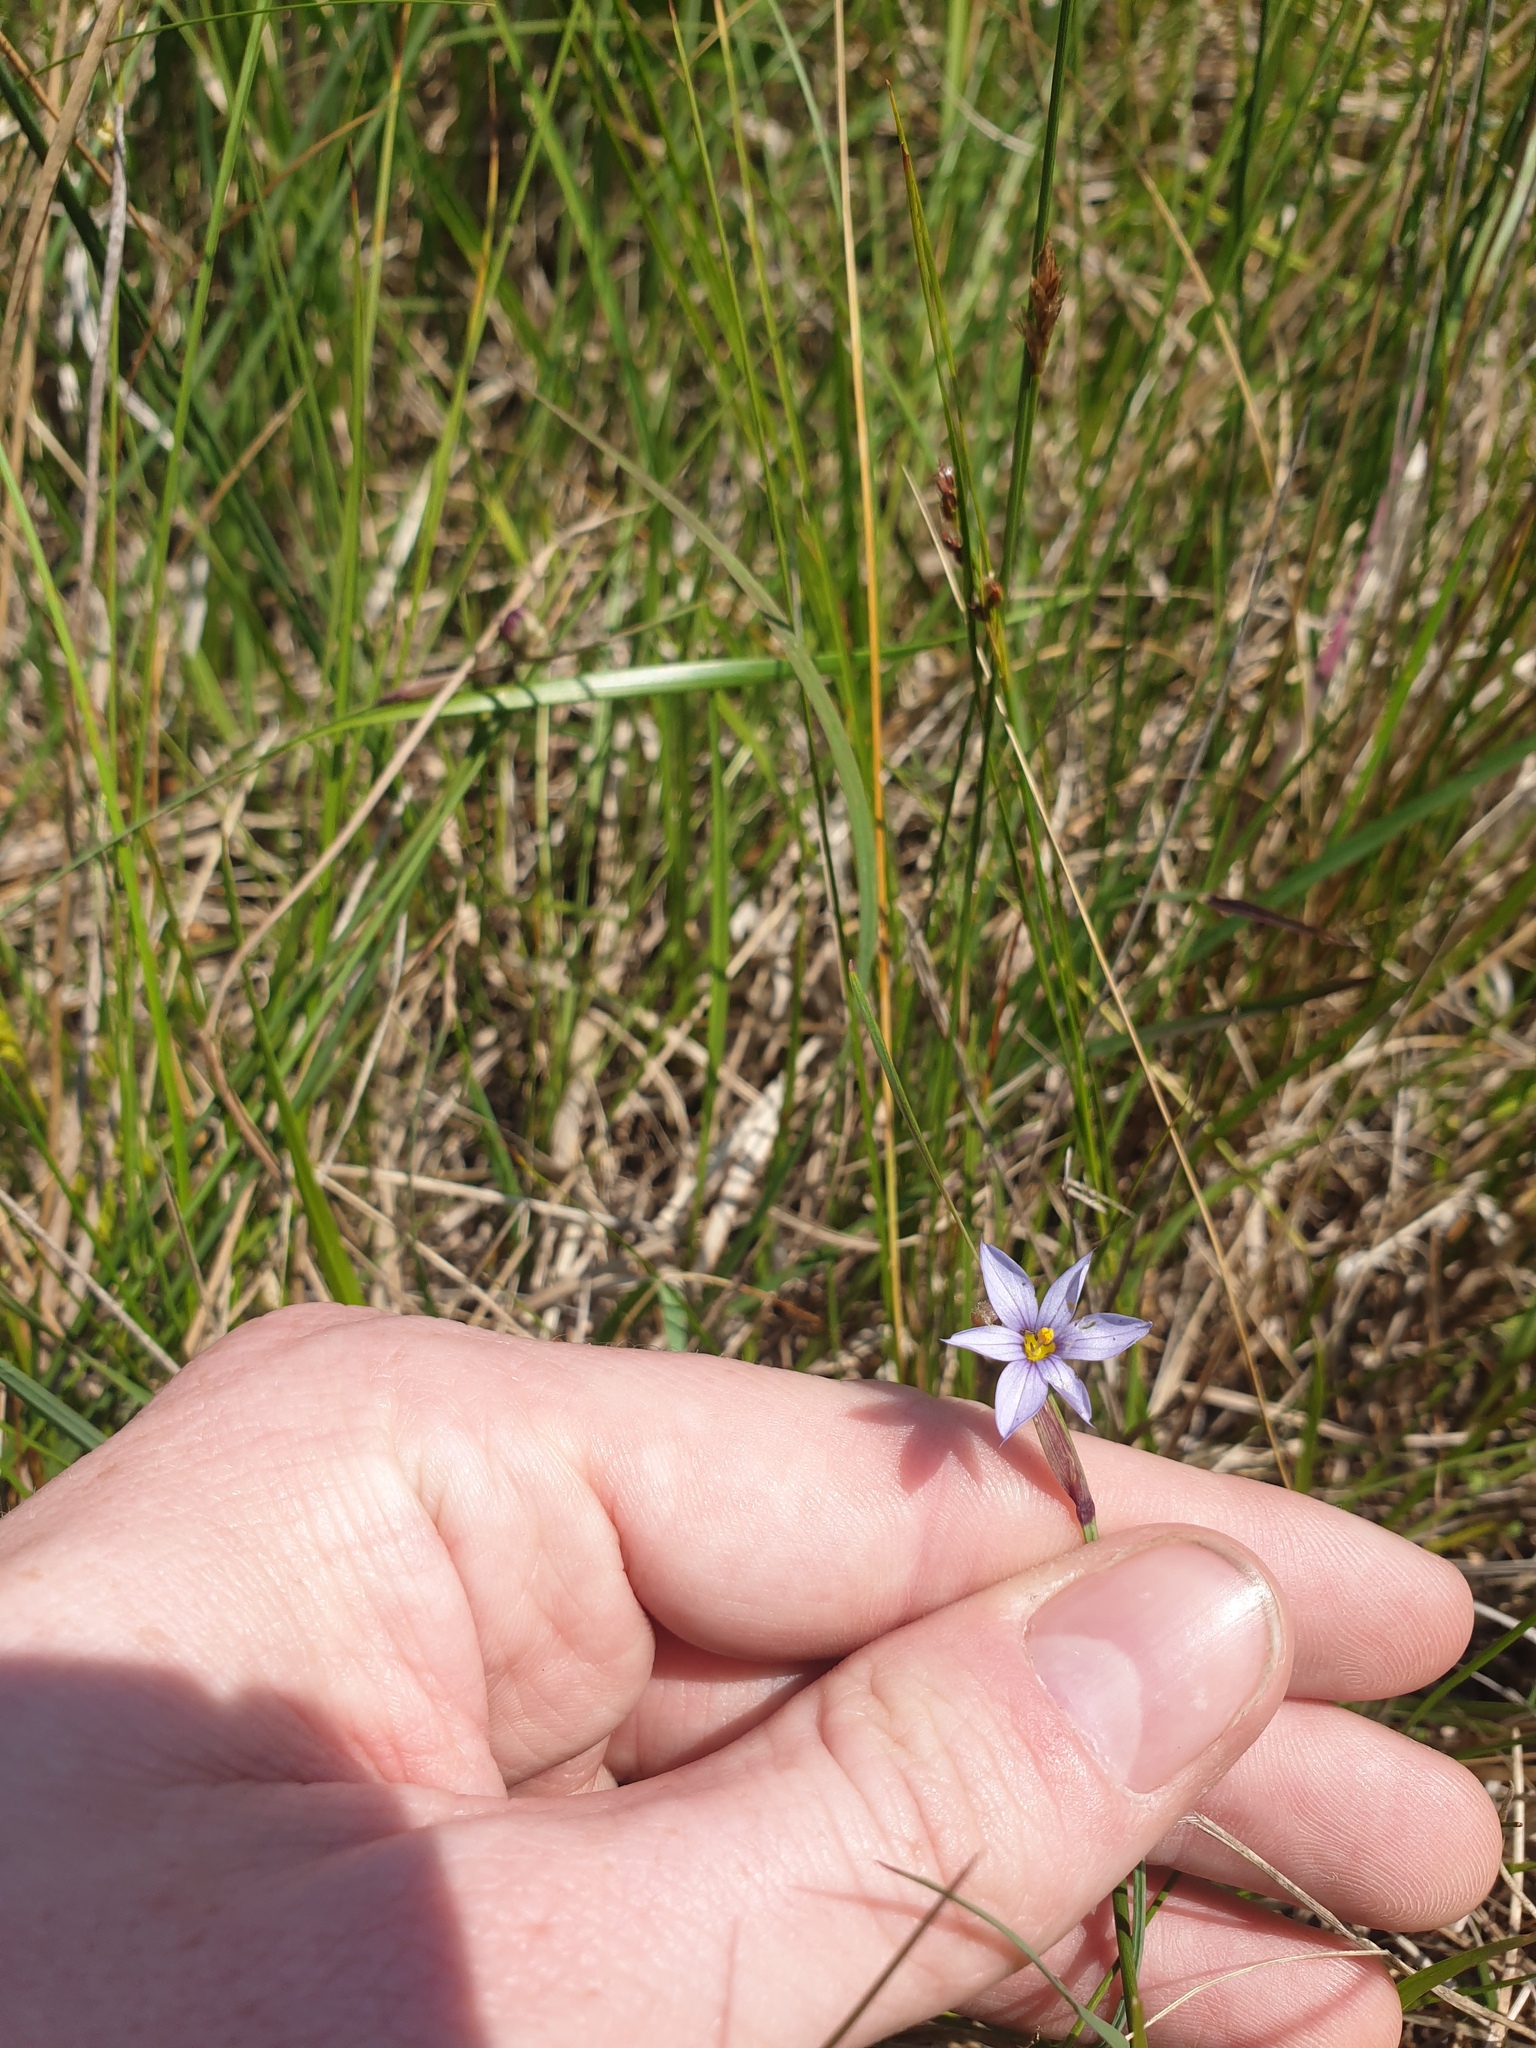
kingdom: Plantae
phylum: Tracheophyta
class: Liliopsida
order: Asparagales
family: Iridaceae
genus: Sisyrinchium
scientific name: Sisyrinchium septentrionale
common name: Northern blue-eyed-grass
